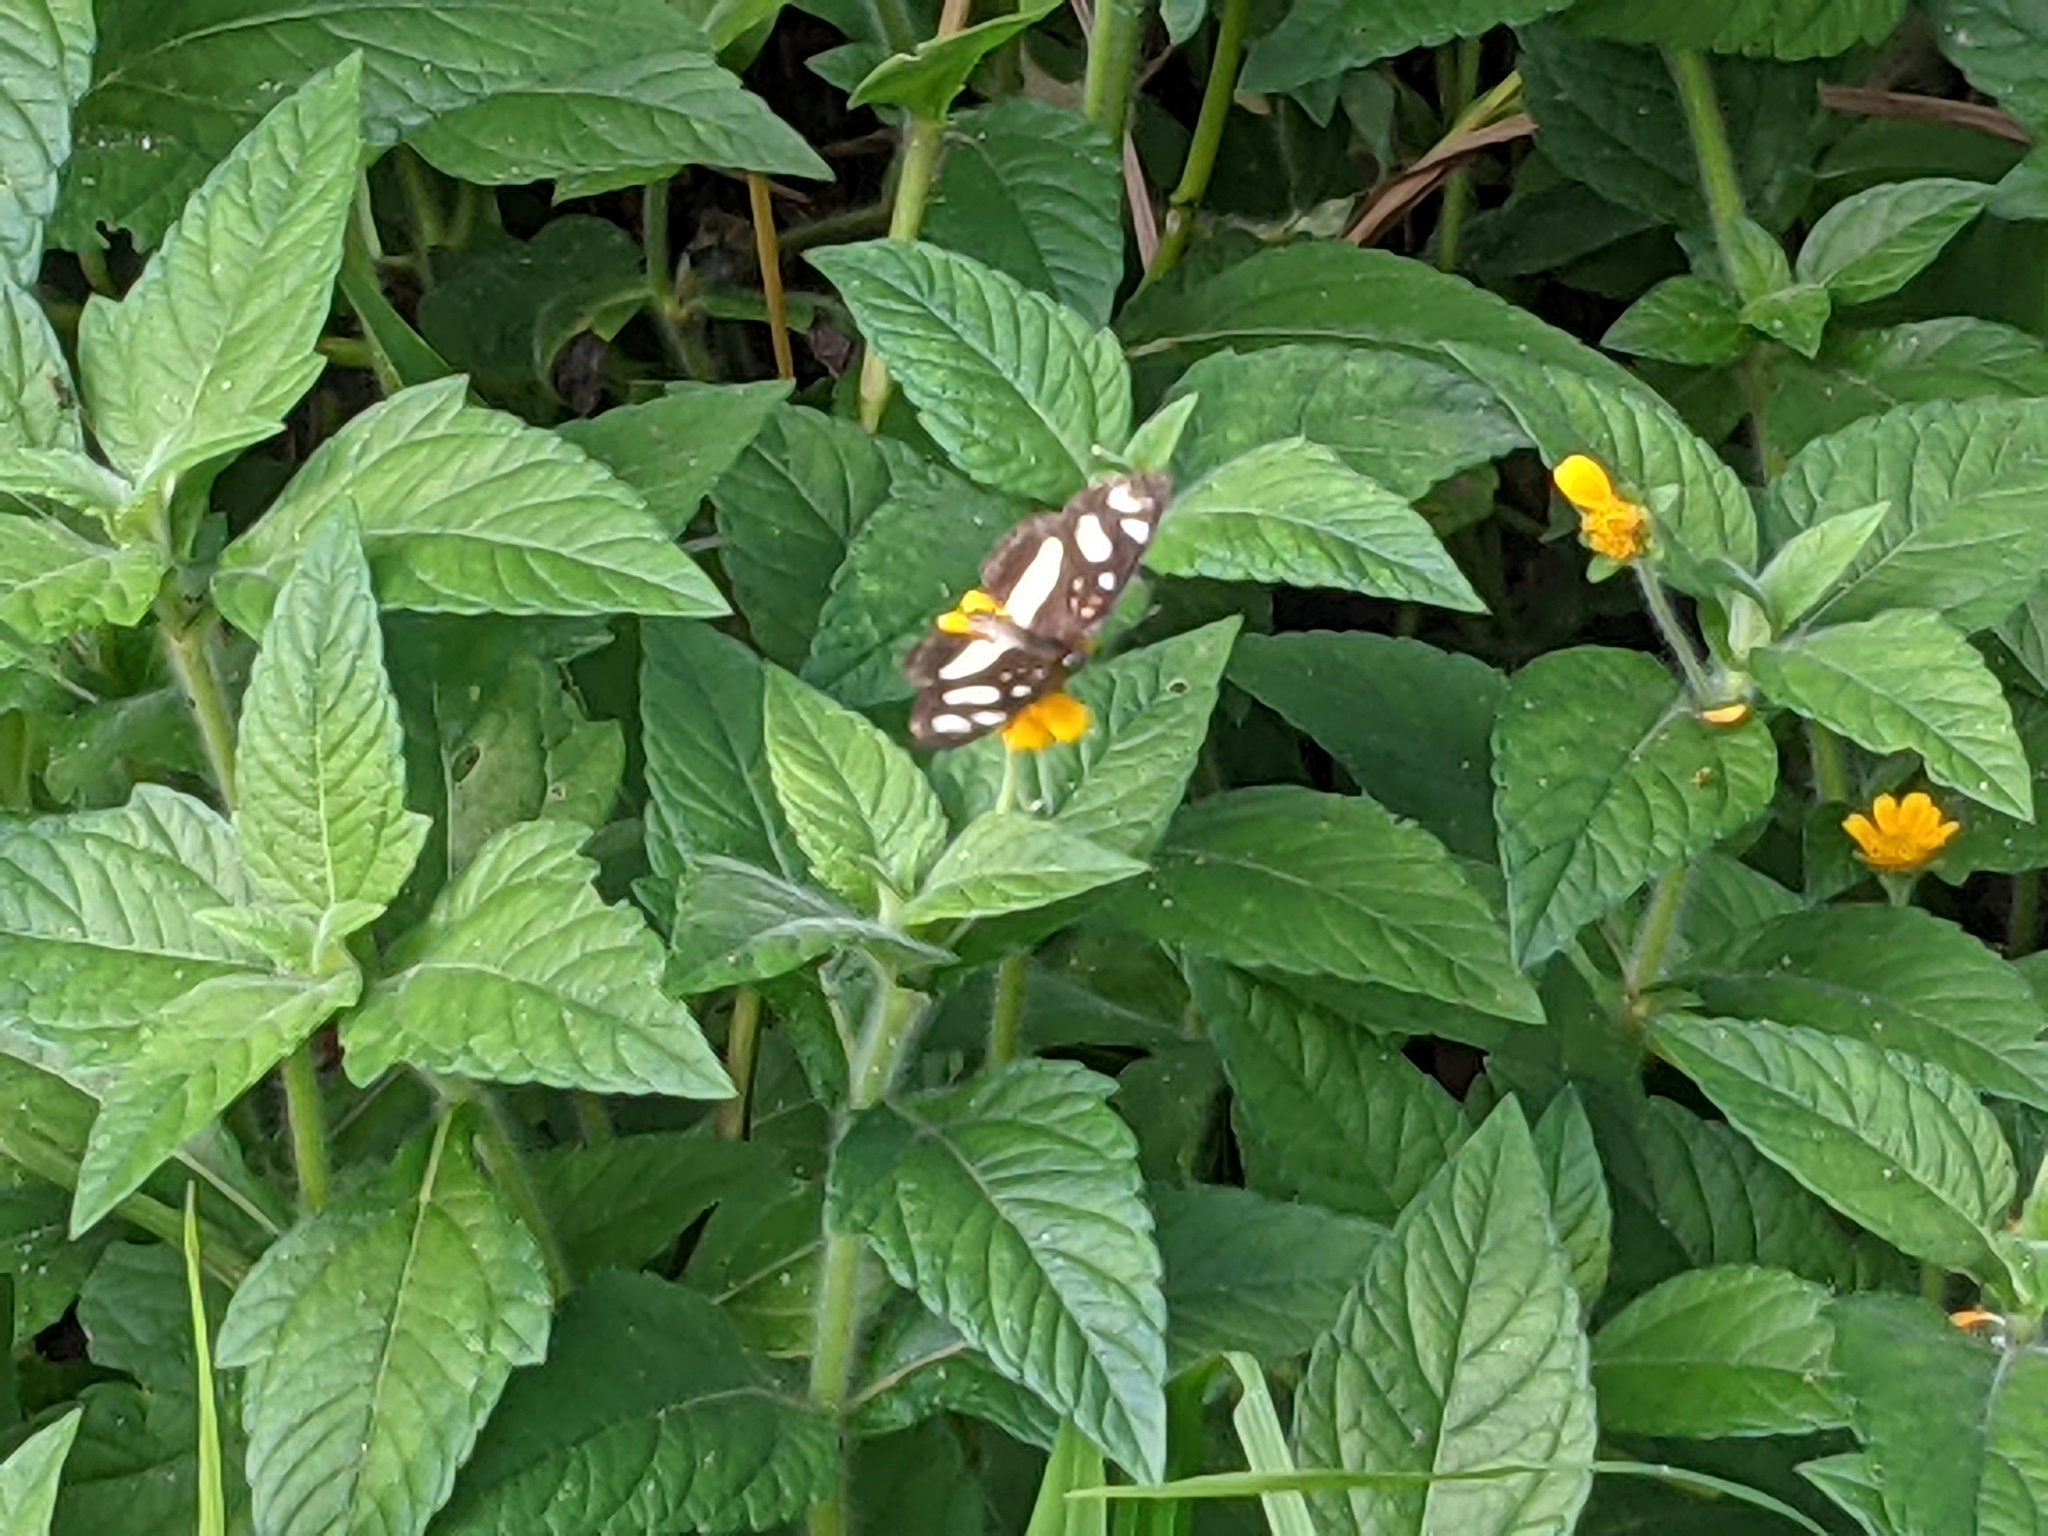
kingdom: Animalia
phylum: Arthropoda
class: Insecta
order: Lepidoptera
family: Nymphalidae
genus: Eresia
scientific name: Eresia clio
